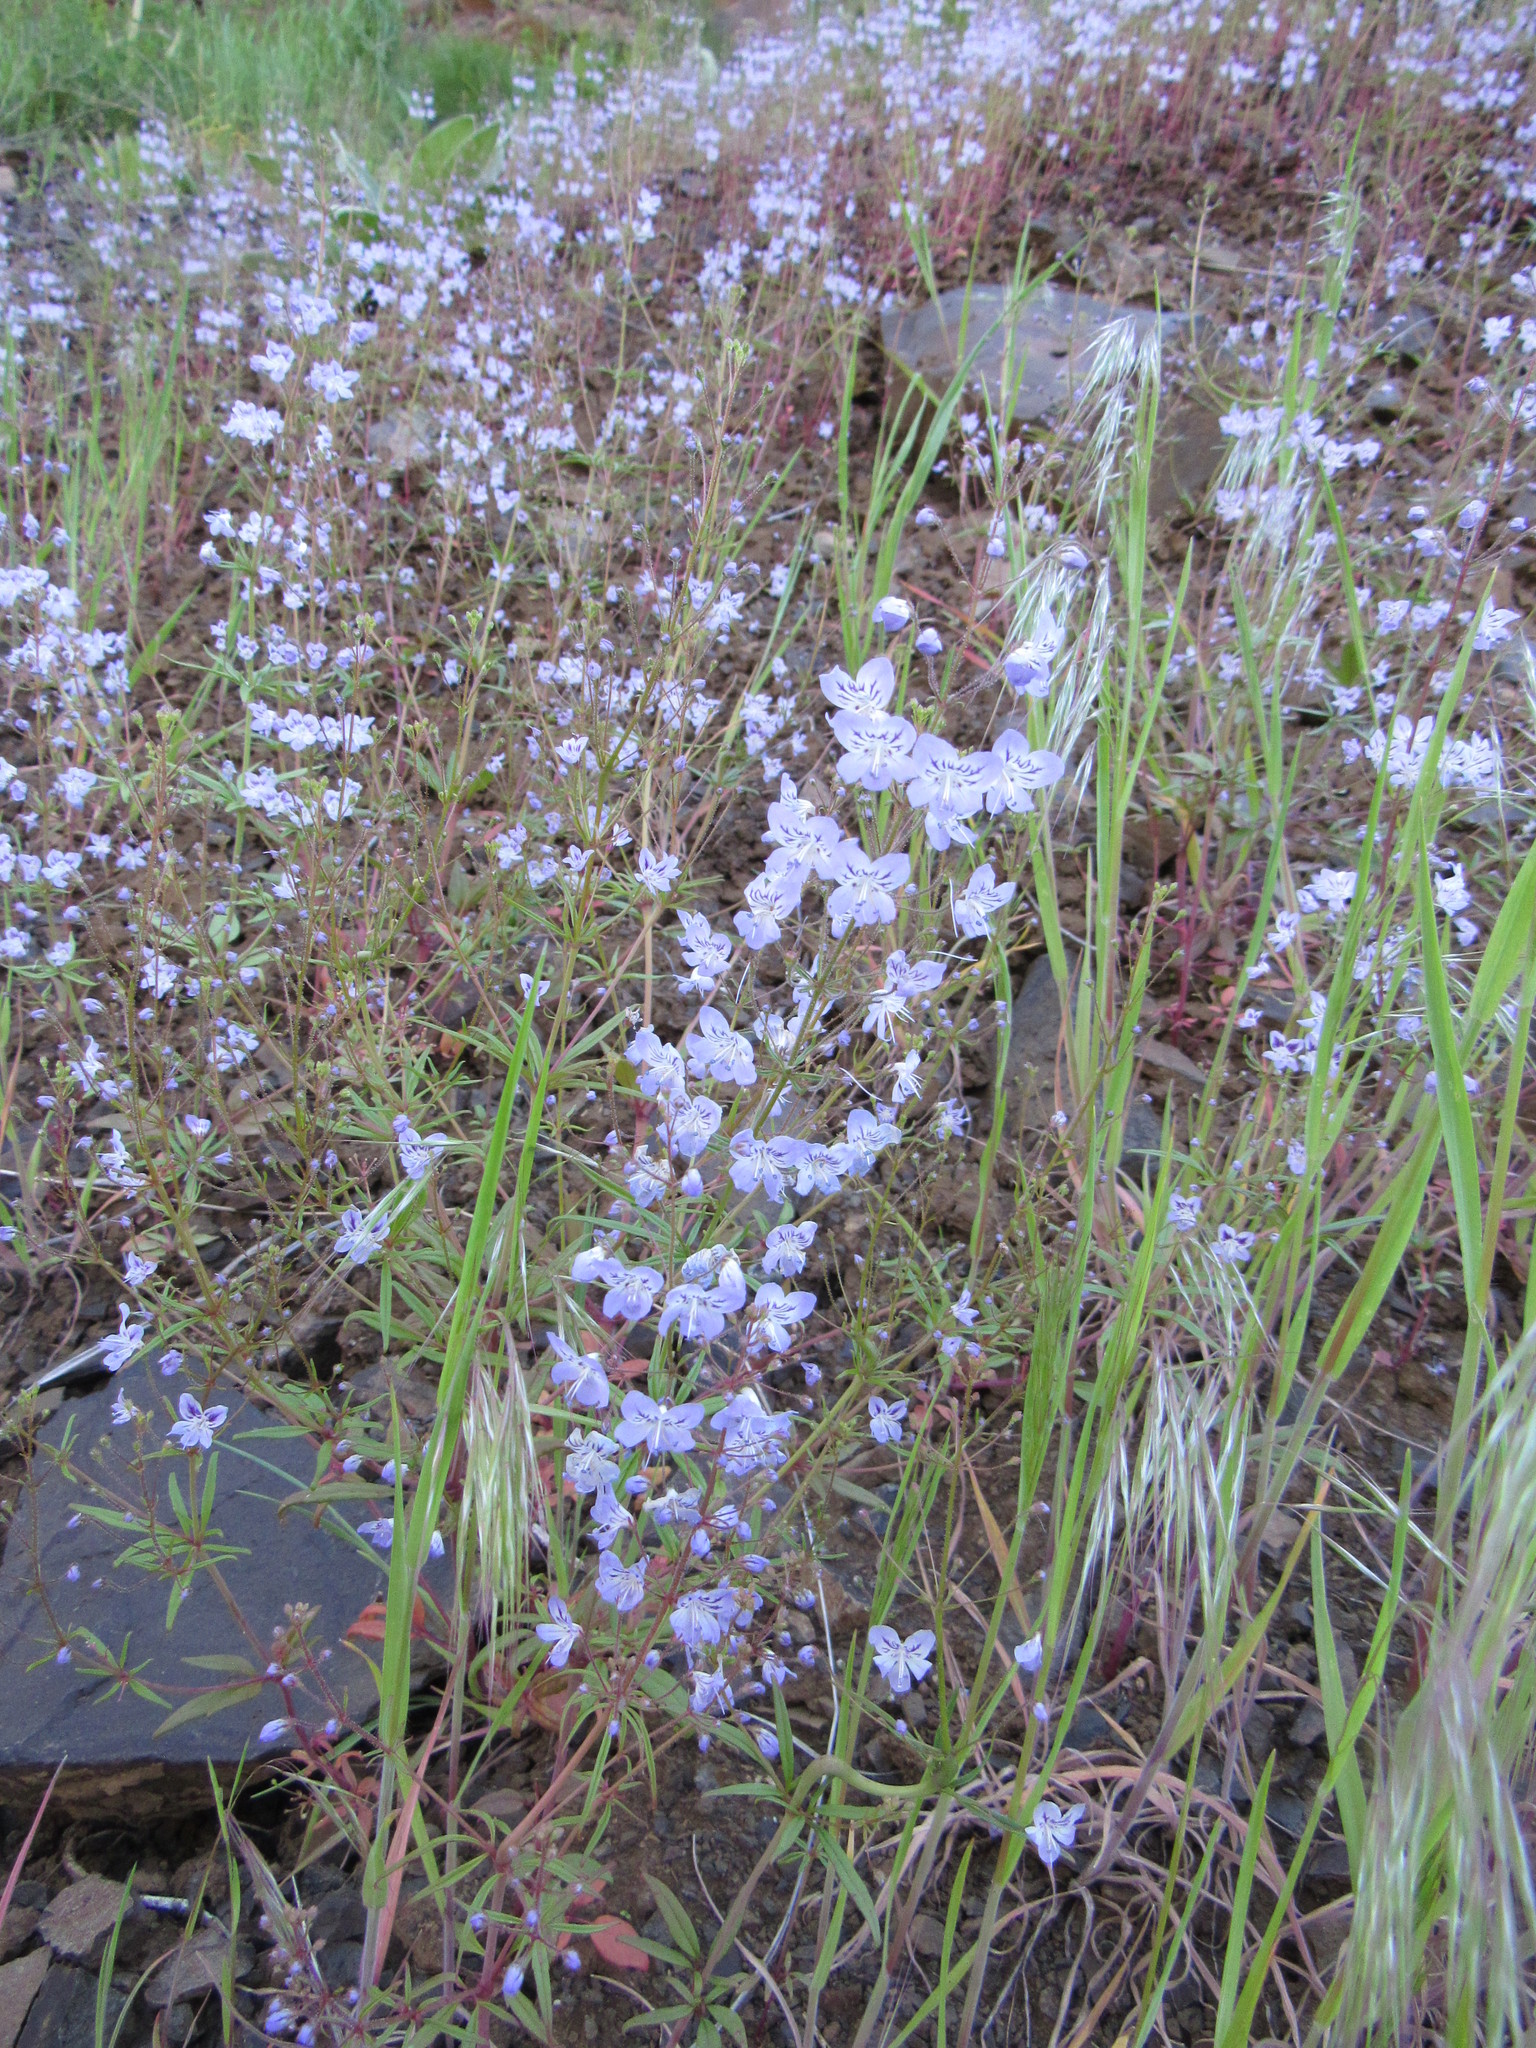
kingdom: Plantae
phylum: Tracheophyta
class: Magnoliopsida
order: Lamiales
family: Plantaginaceae
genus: Tonella
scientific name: Tonella floribunda
